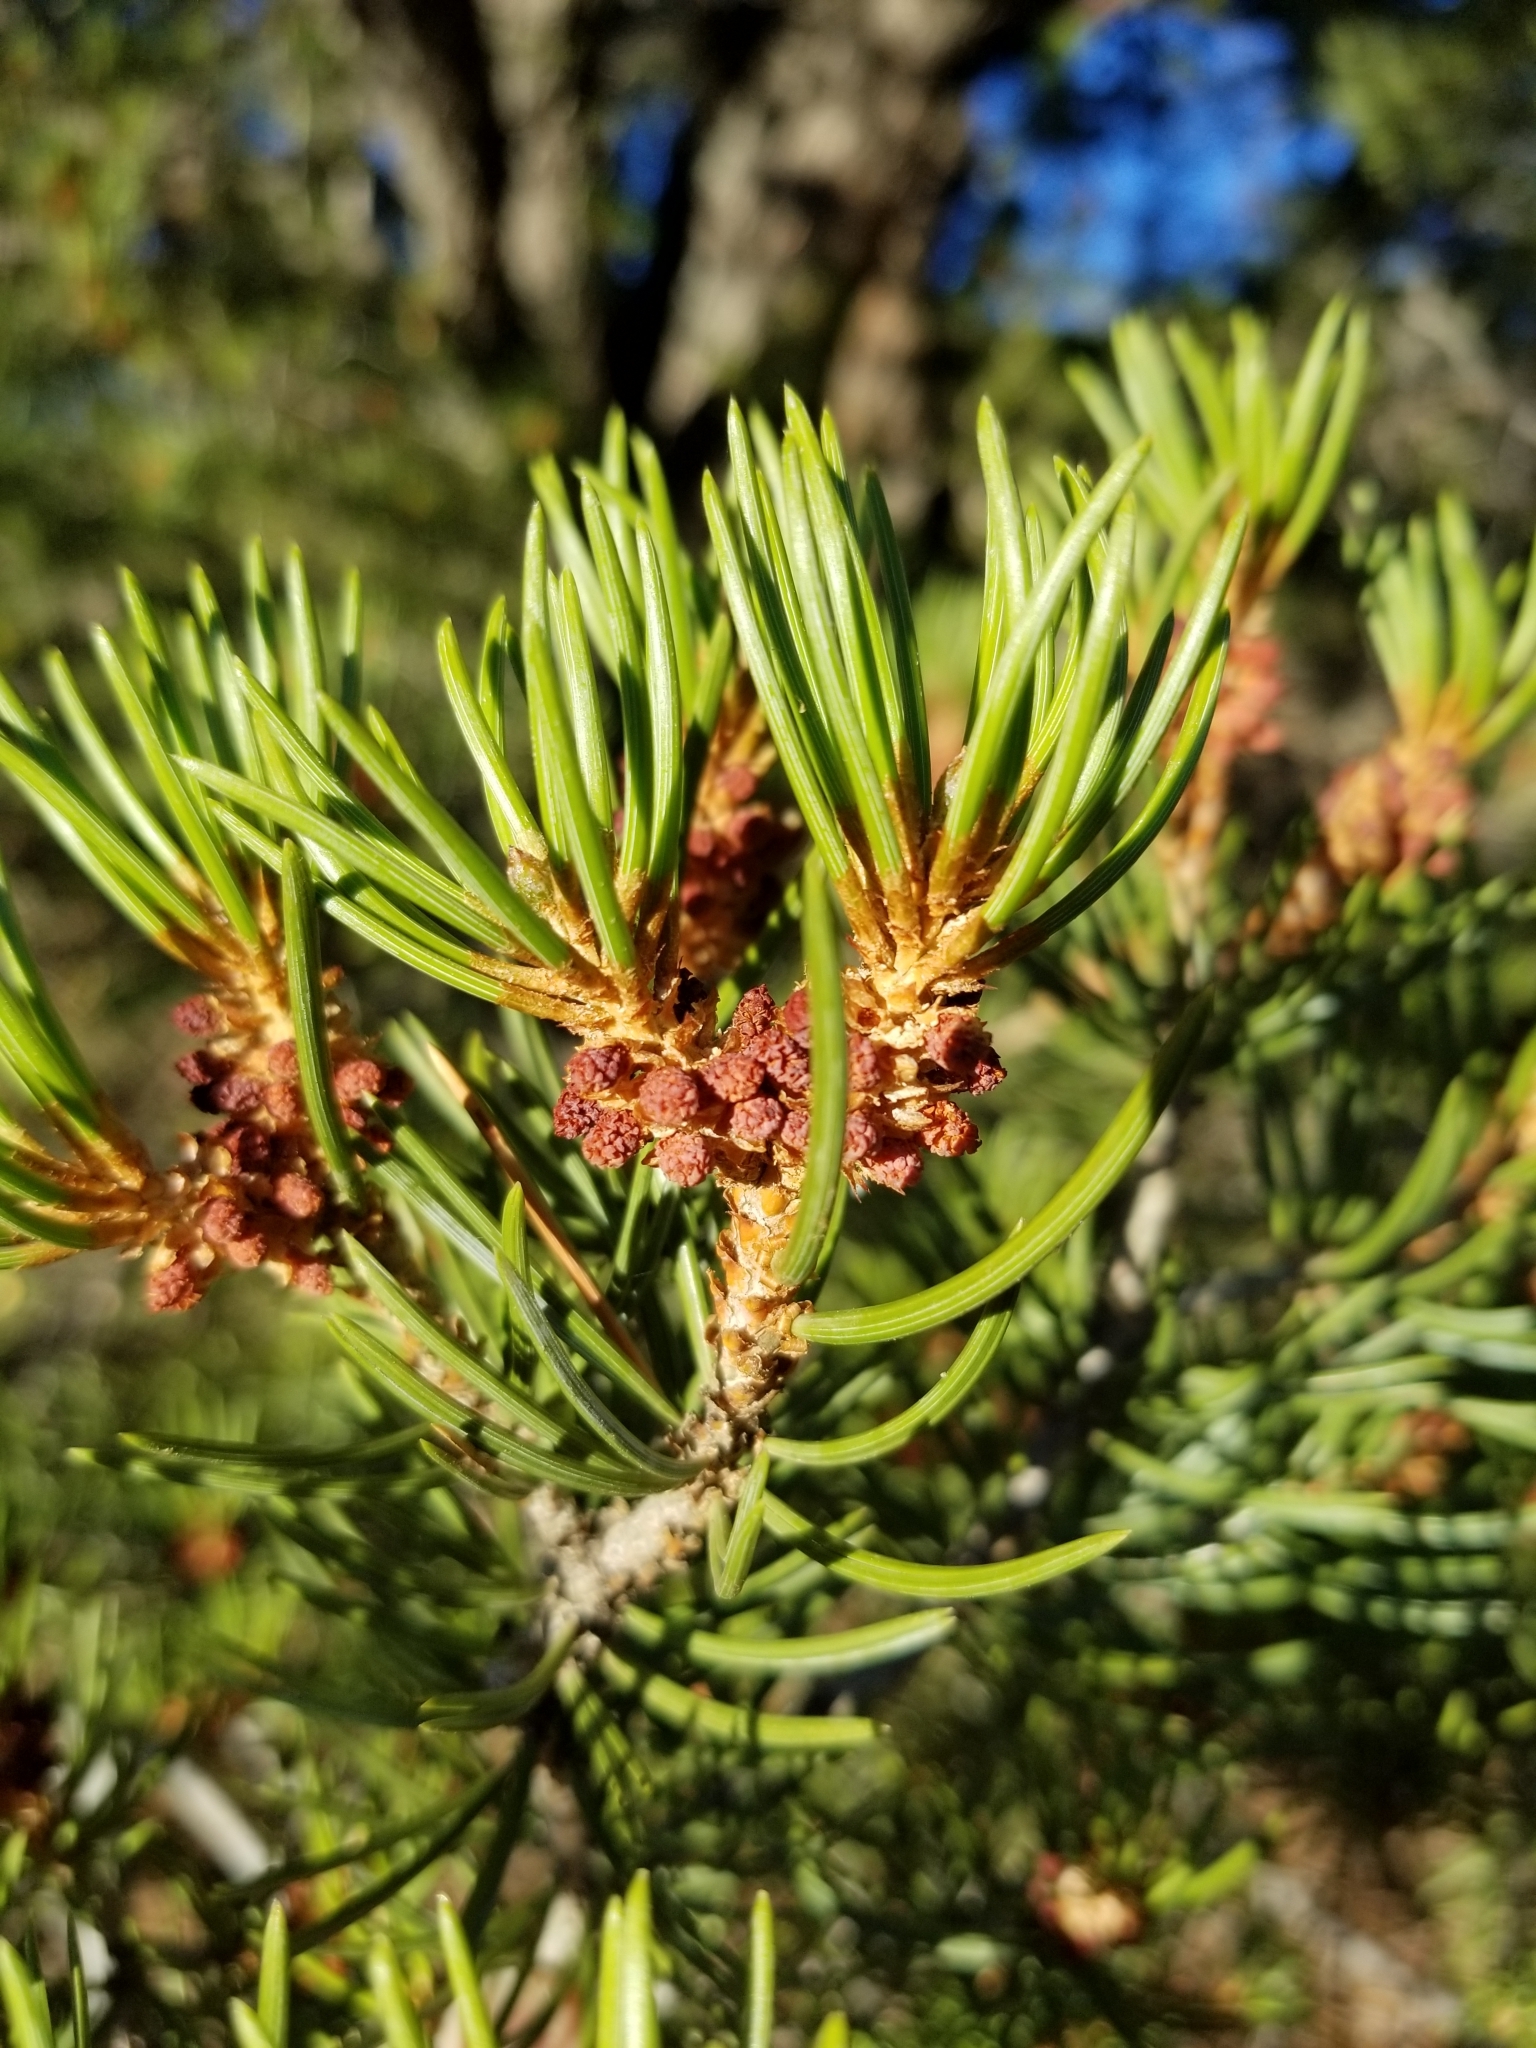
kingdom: Plantae
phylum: Tracheophyta
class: Pinopsida
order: Pinales
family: Pinaceae
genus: Pinus
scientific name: Pinus edulis
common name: Colorado pinyon
